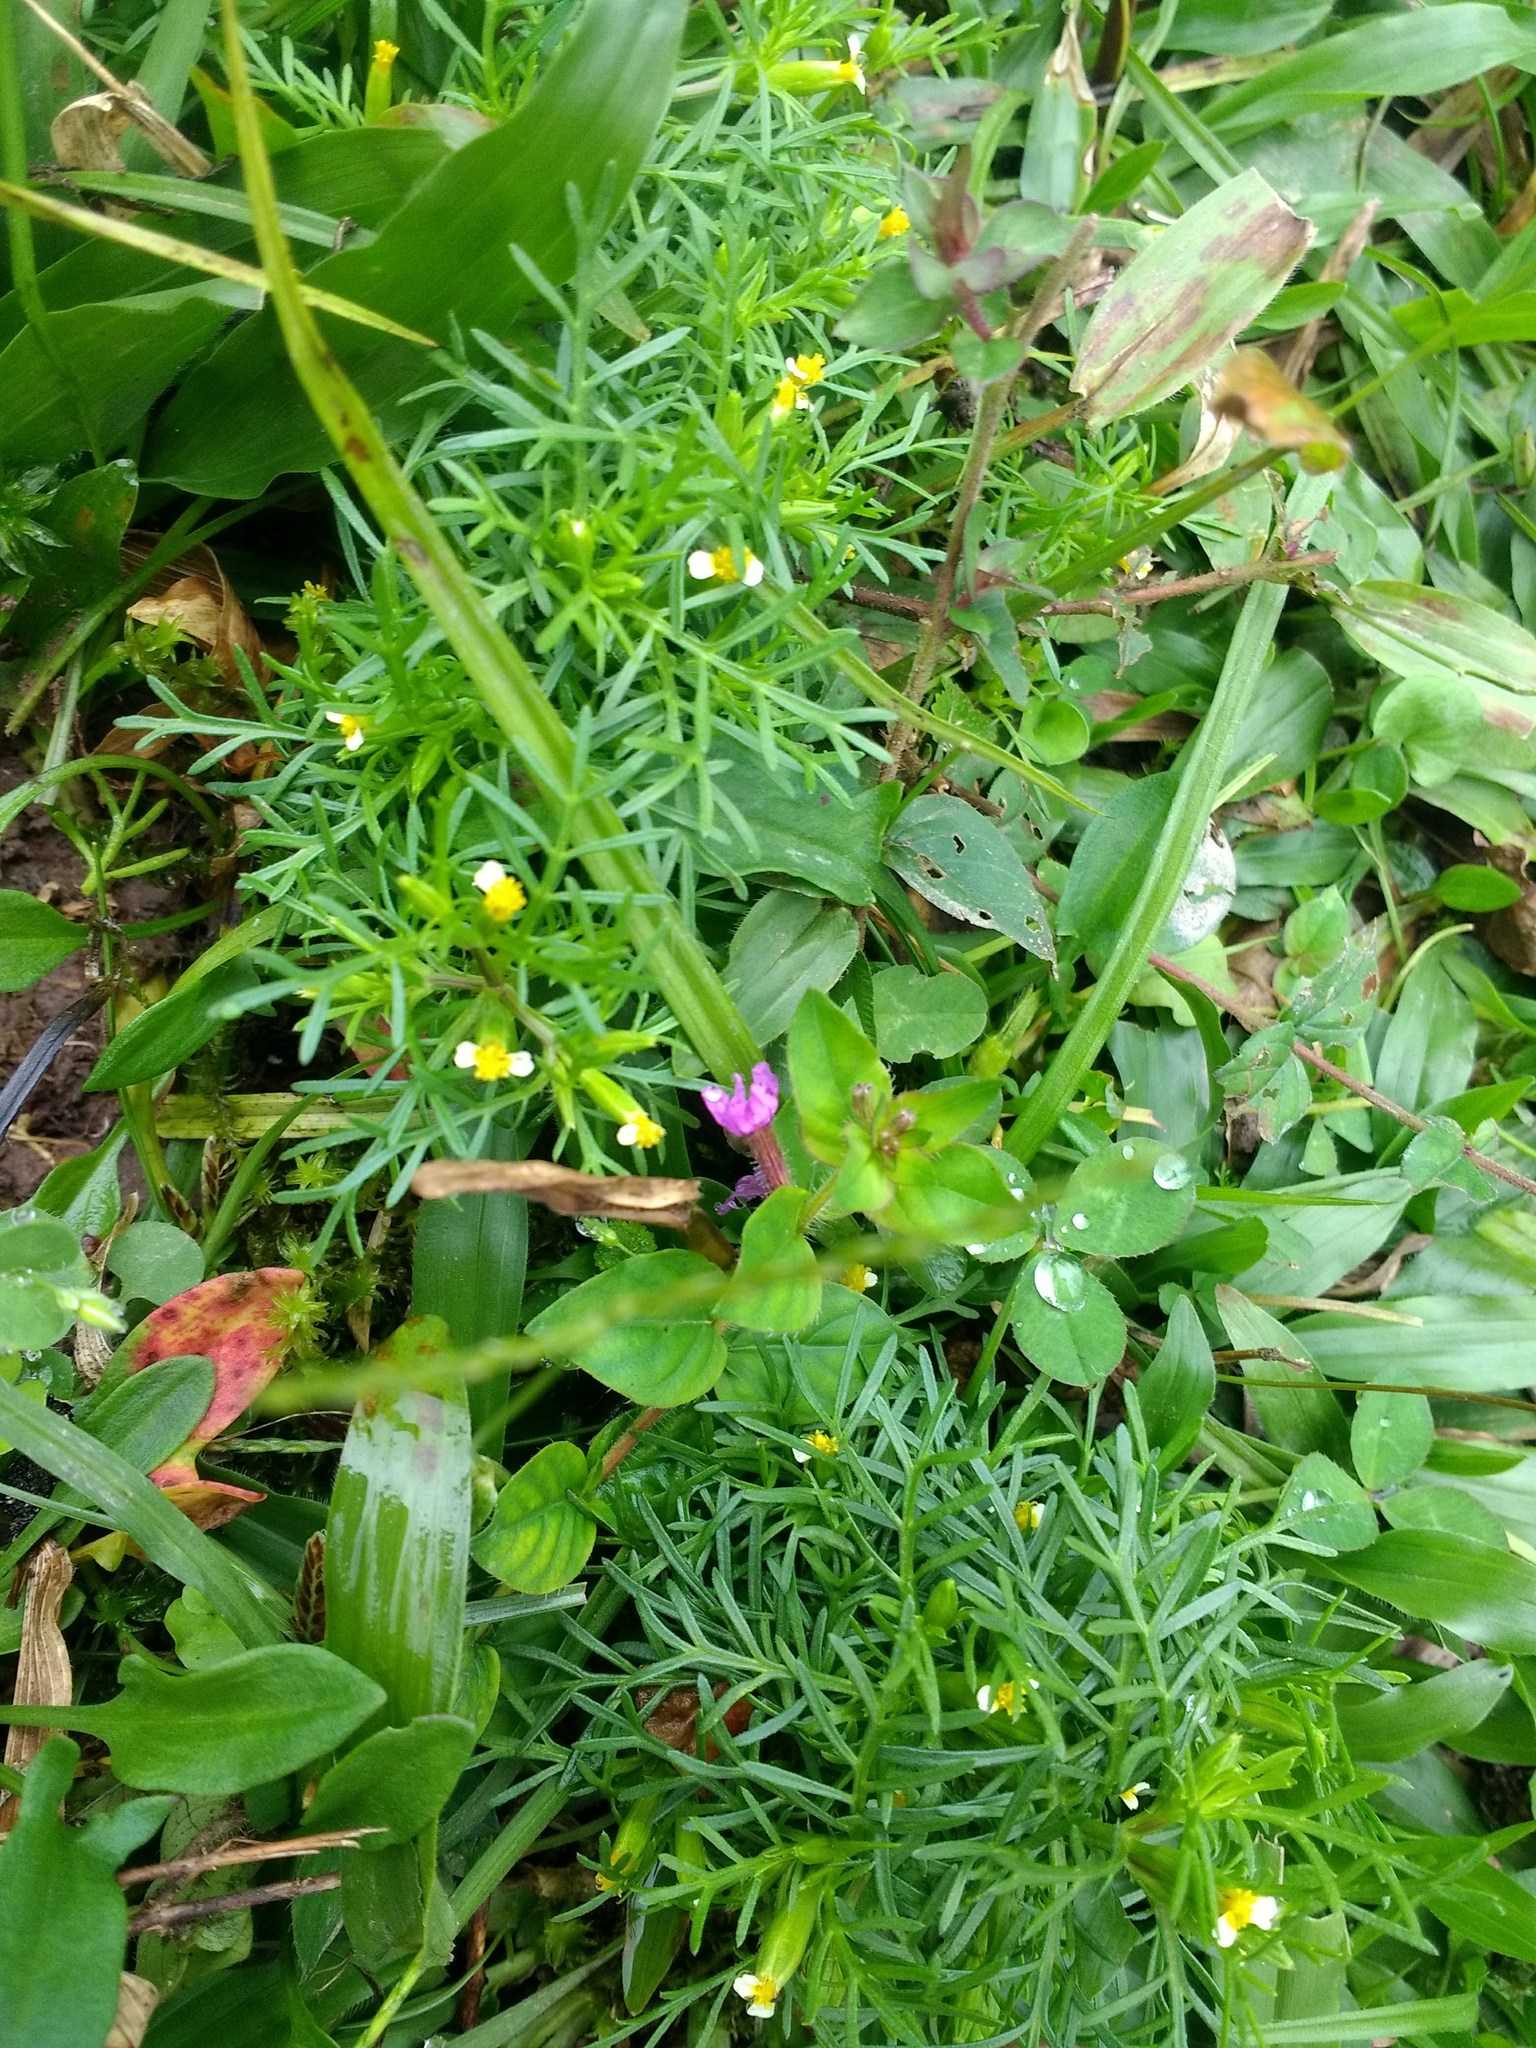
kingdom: Plantae
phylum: Tracheophyta
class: Magnoliopsida
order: Asterales
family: Asteraceae
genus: Tagetes
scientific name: Tagetes filifolia
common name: Lesser marigold
